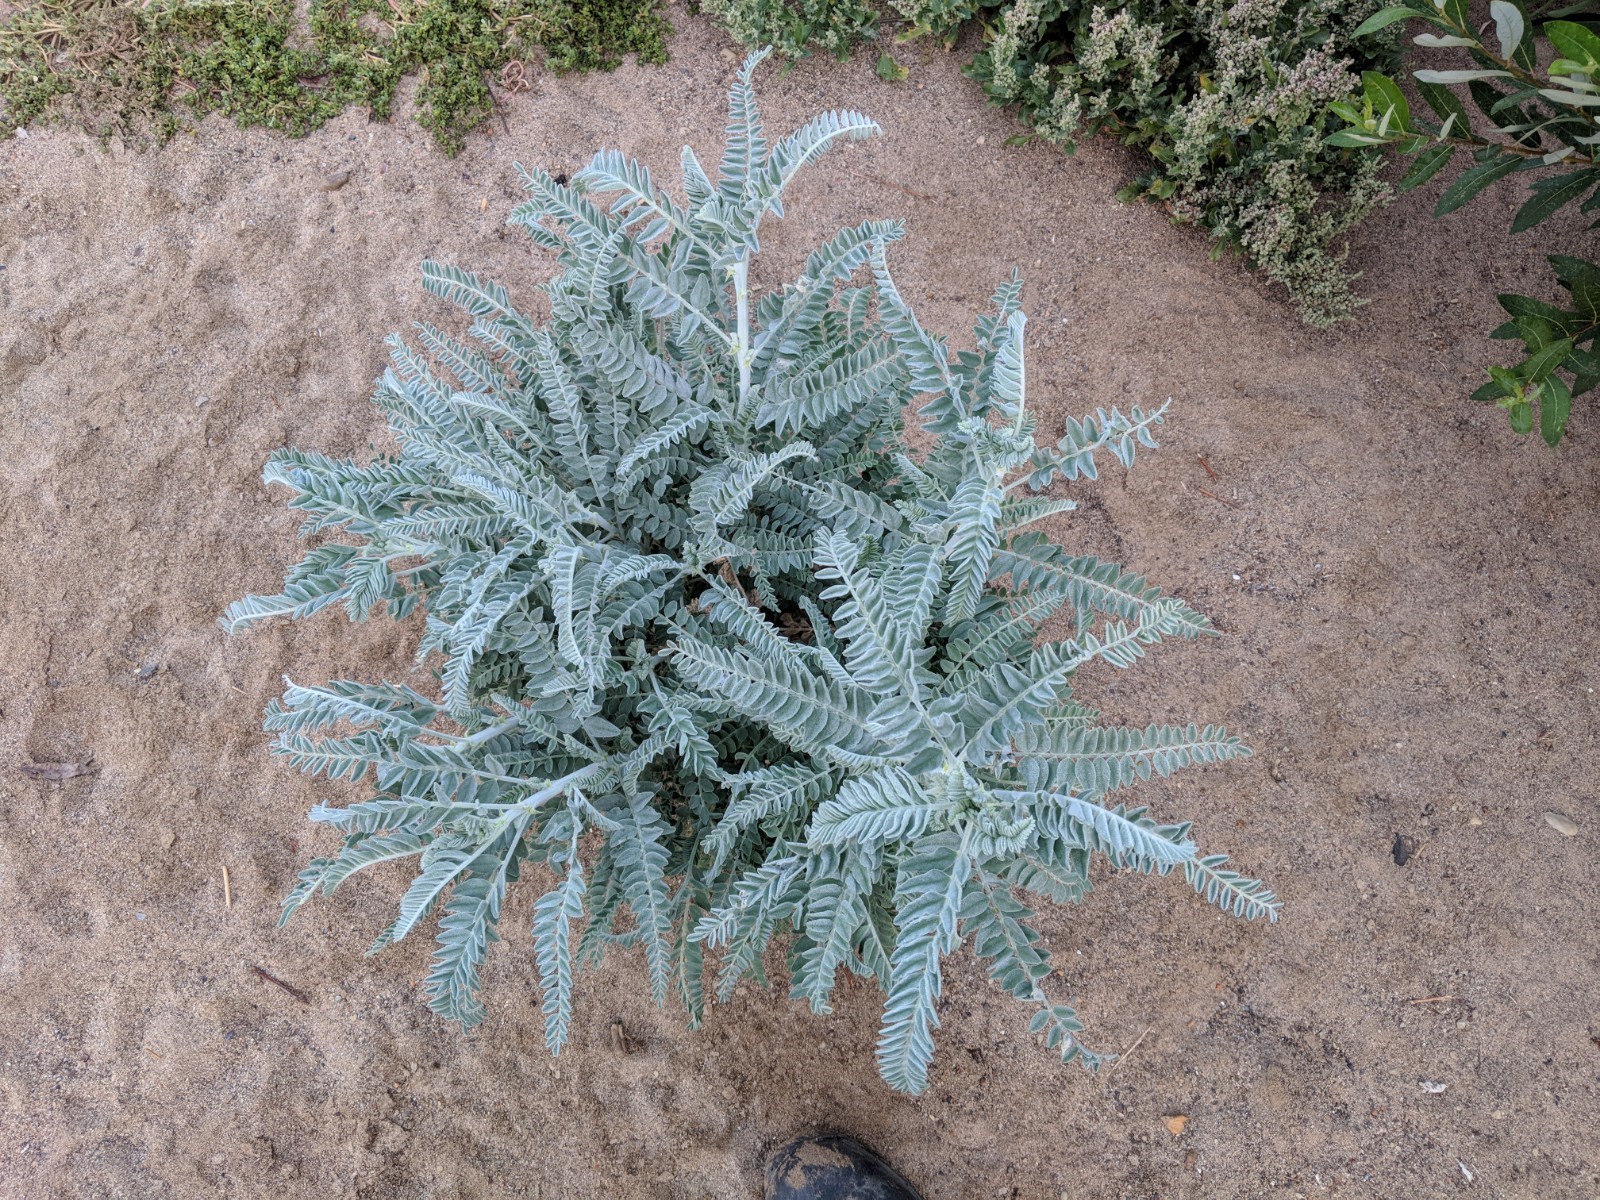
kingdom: Plantae
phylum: Tracheophyta
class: Magnoliopsida
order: Fabales
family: Fabaceae
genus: Astragalus
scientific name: Astragalus brauntonii
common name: Braunton's milk-vetch
